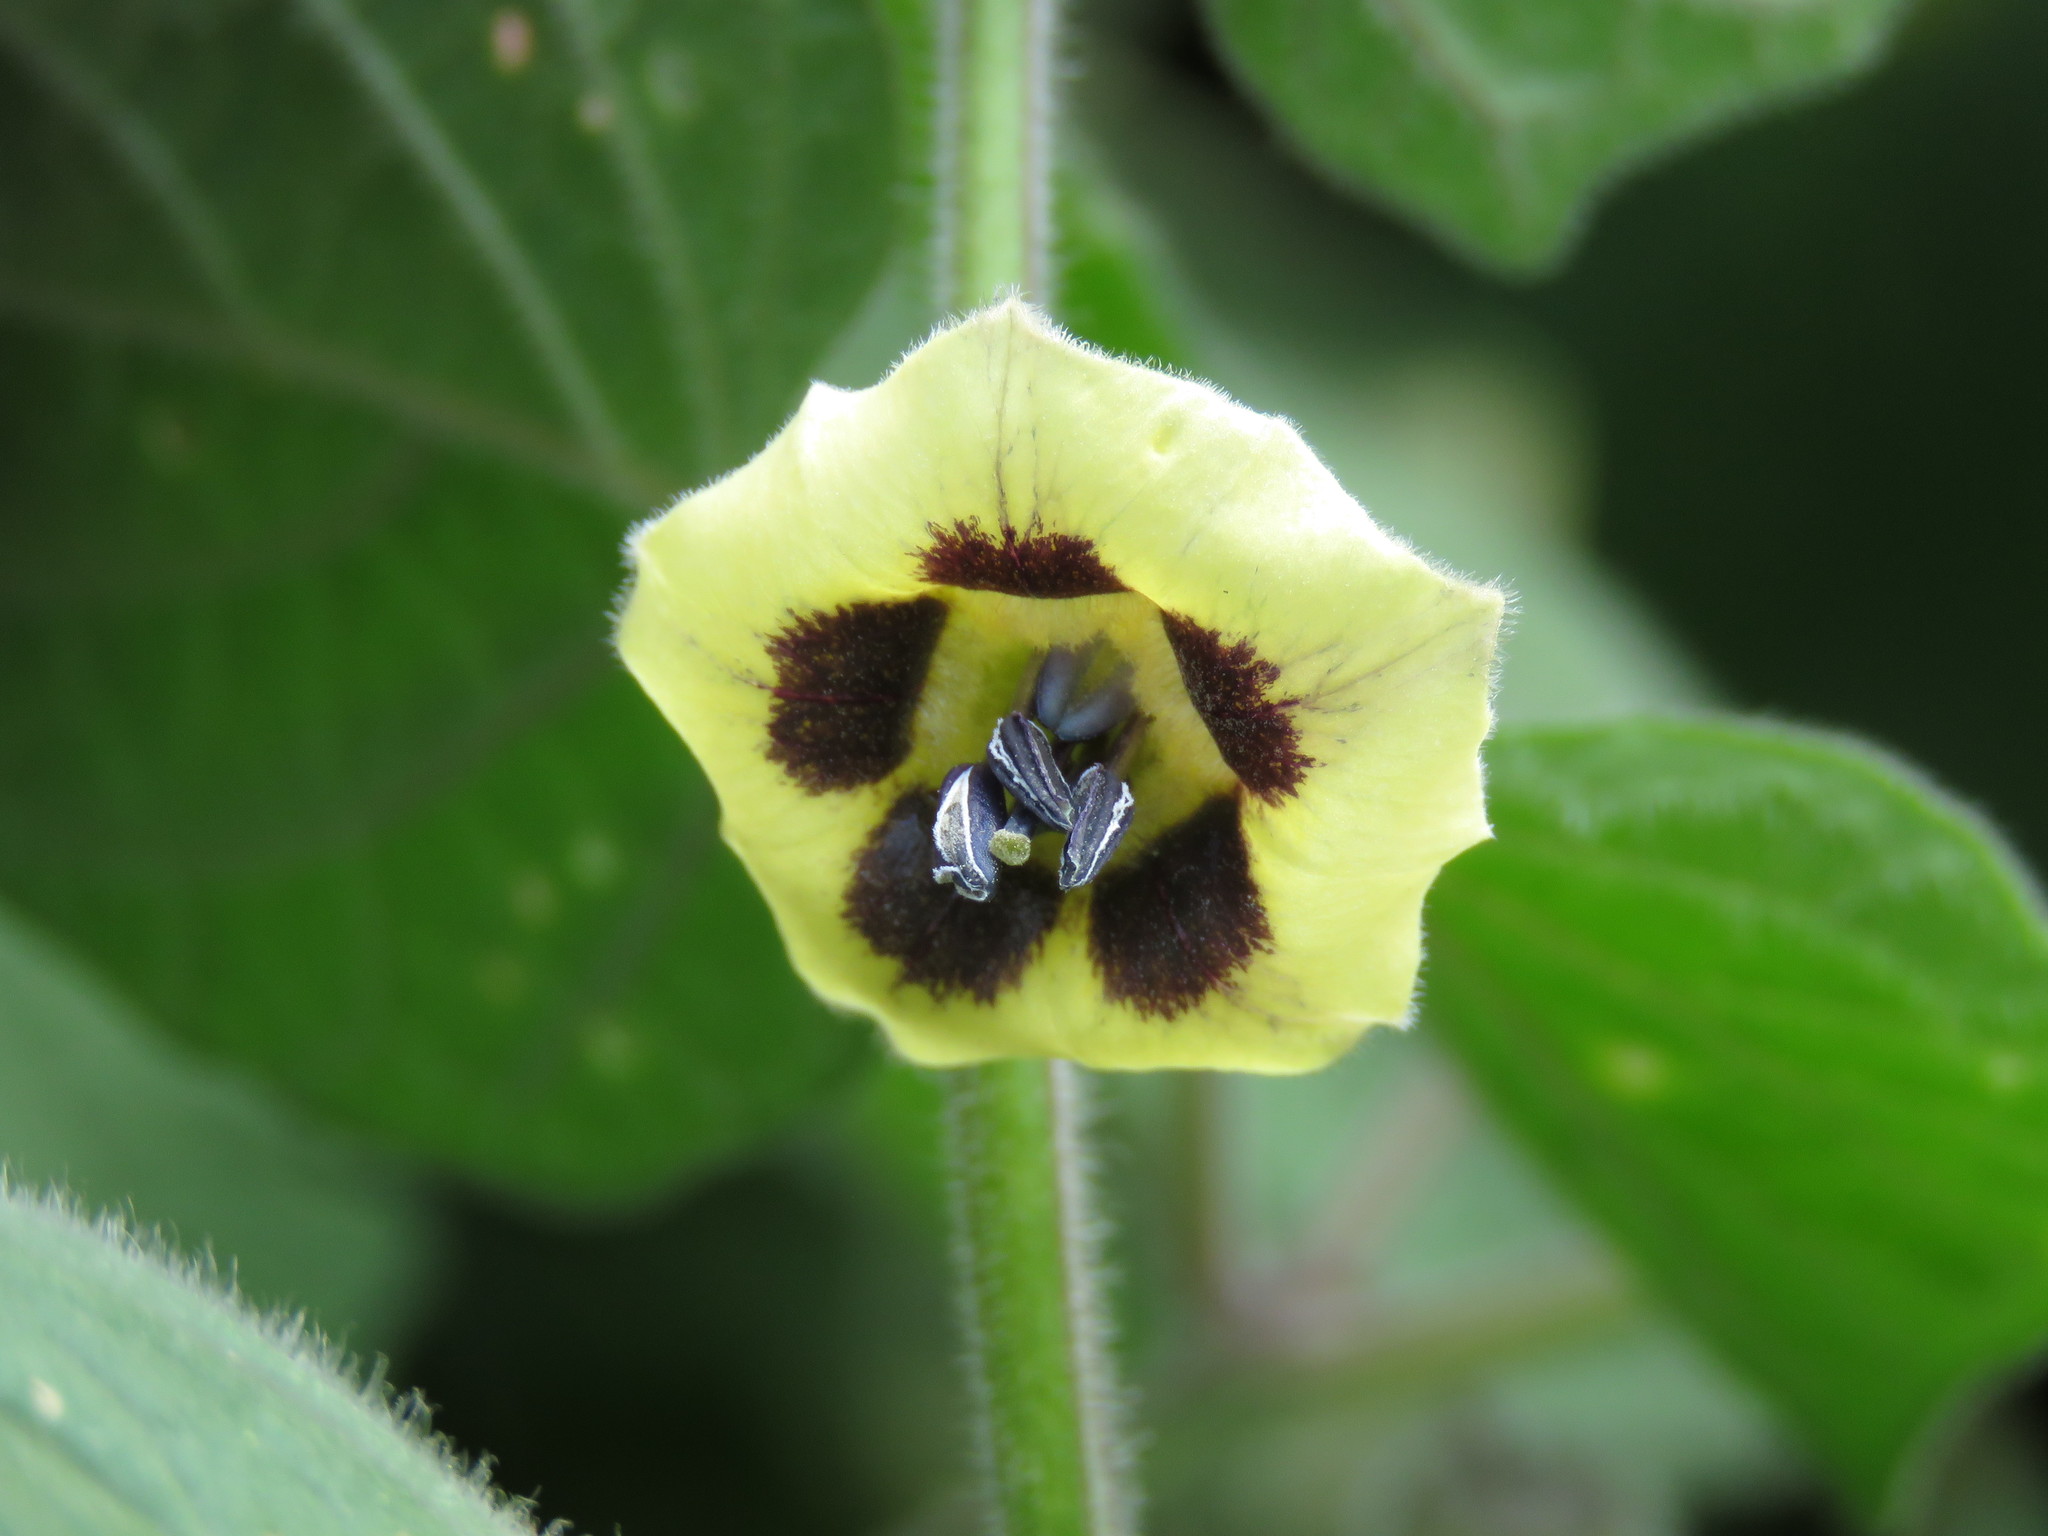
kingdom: Plantae
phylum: Tracheophyta
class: Magnoliopsida
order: Solanales
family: Solanaceae
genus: Physalis
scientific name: Physalis peruviana
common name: Cape-gooseberry
